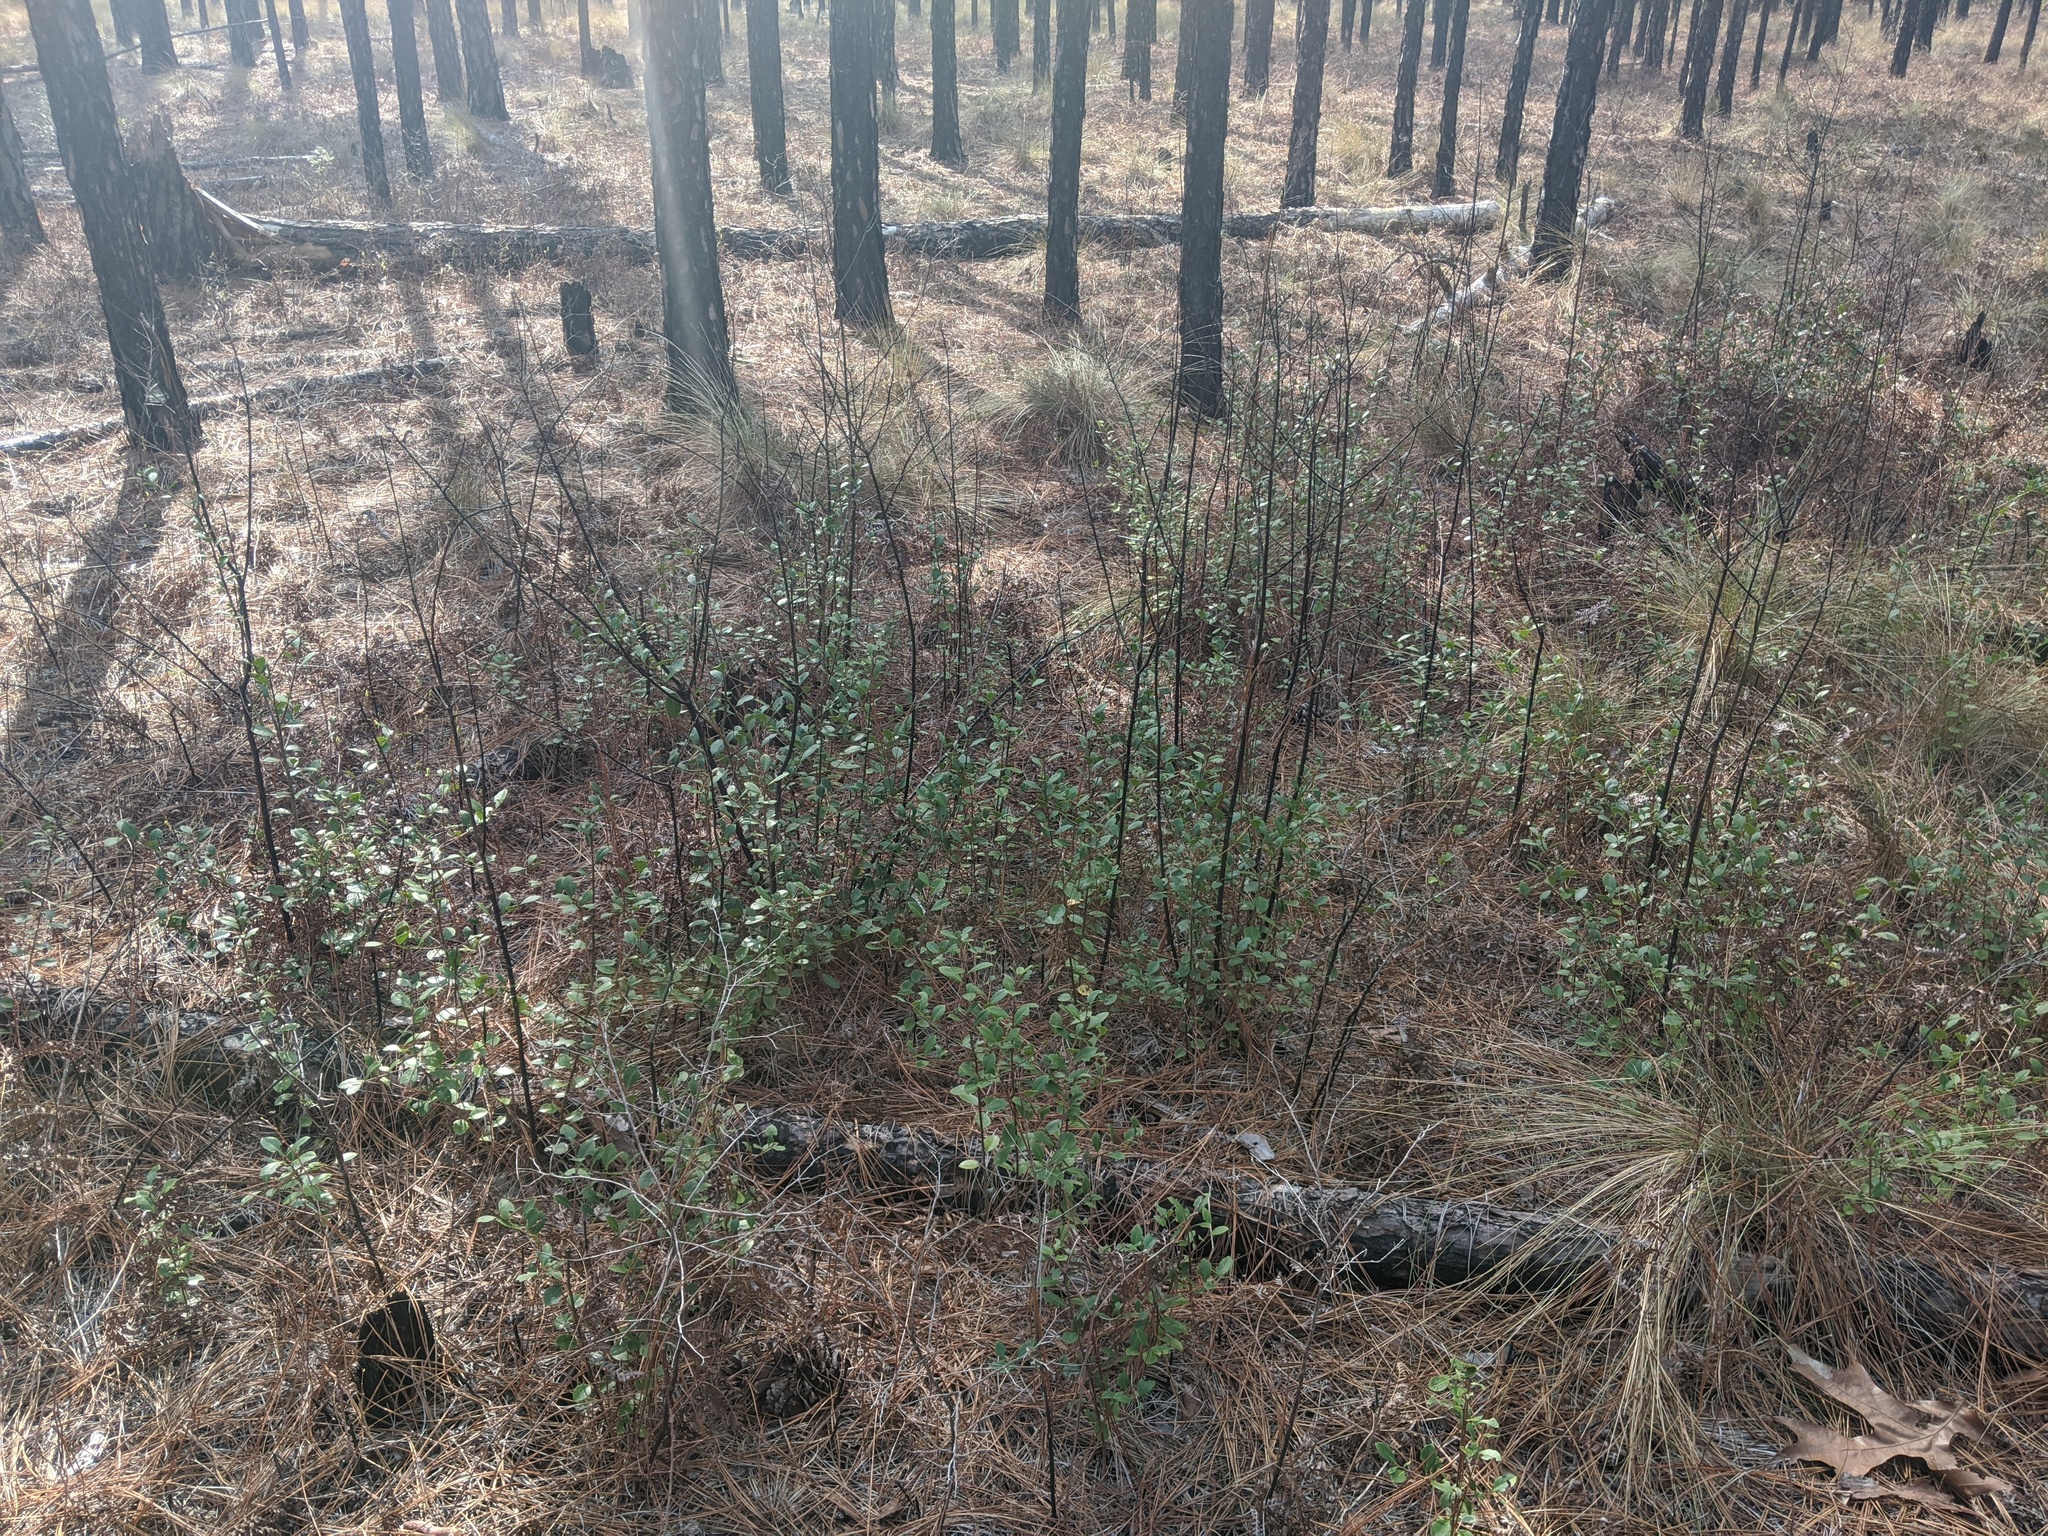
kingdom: Plantae
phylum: Tracheophyta
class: Magnoliopsida
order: Aquifoliales
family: Aquifoliaceae
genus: Ilex
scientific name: Ilex coriacea
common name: Sweet gallberry
